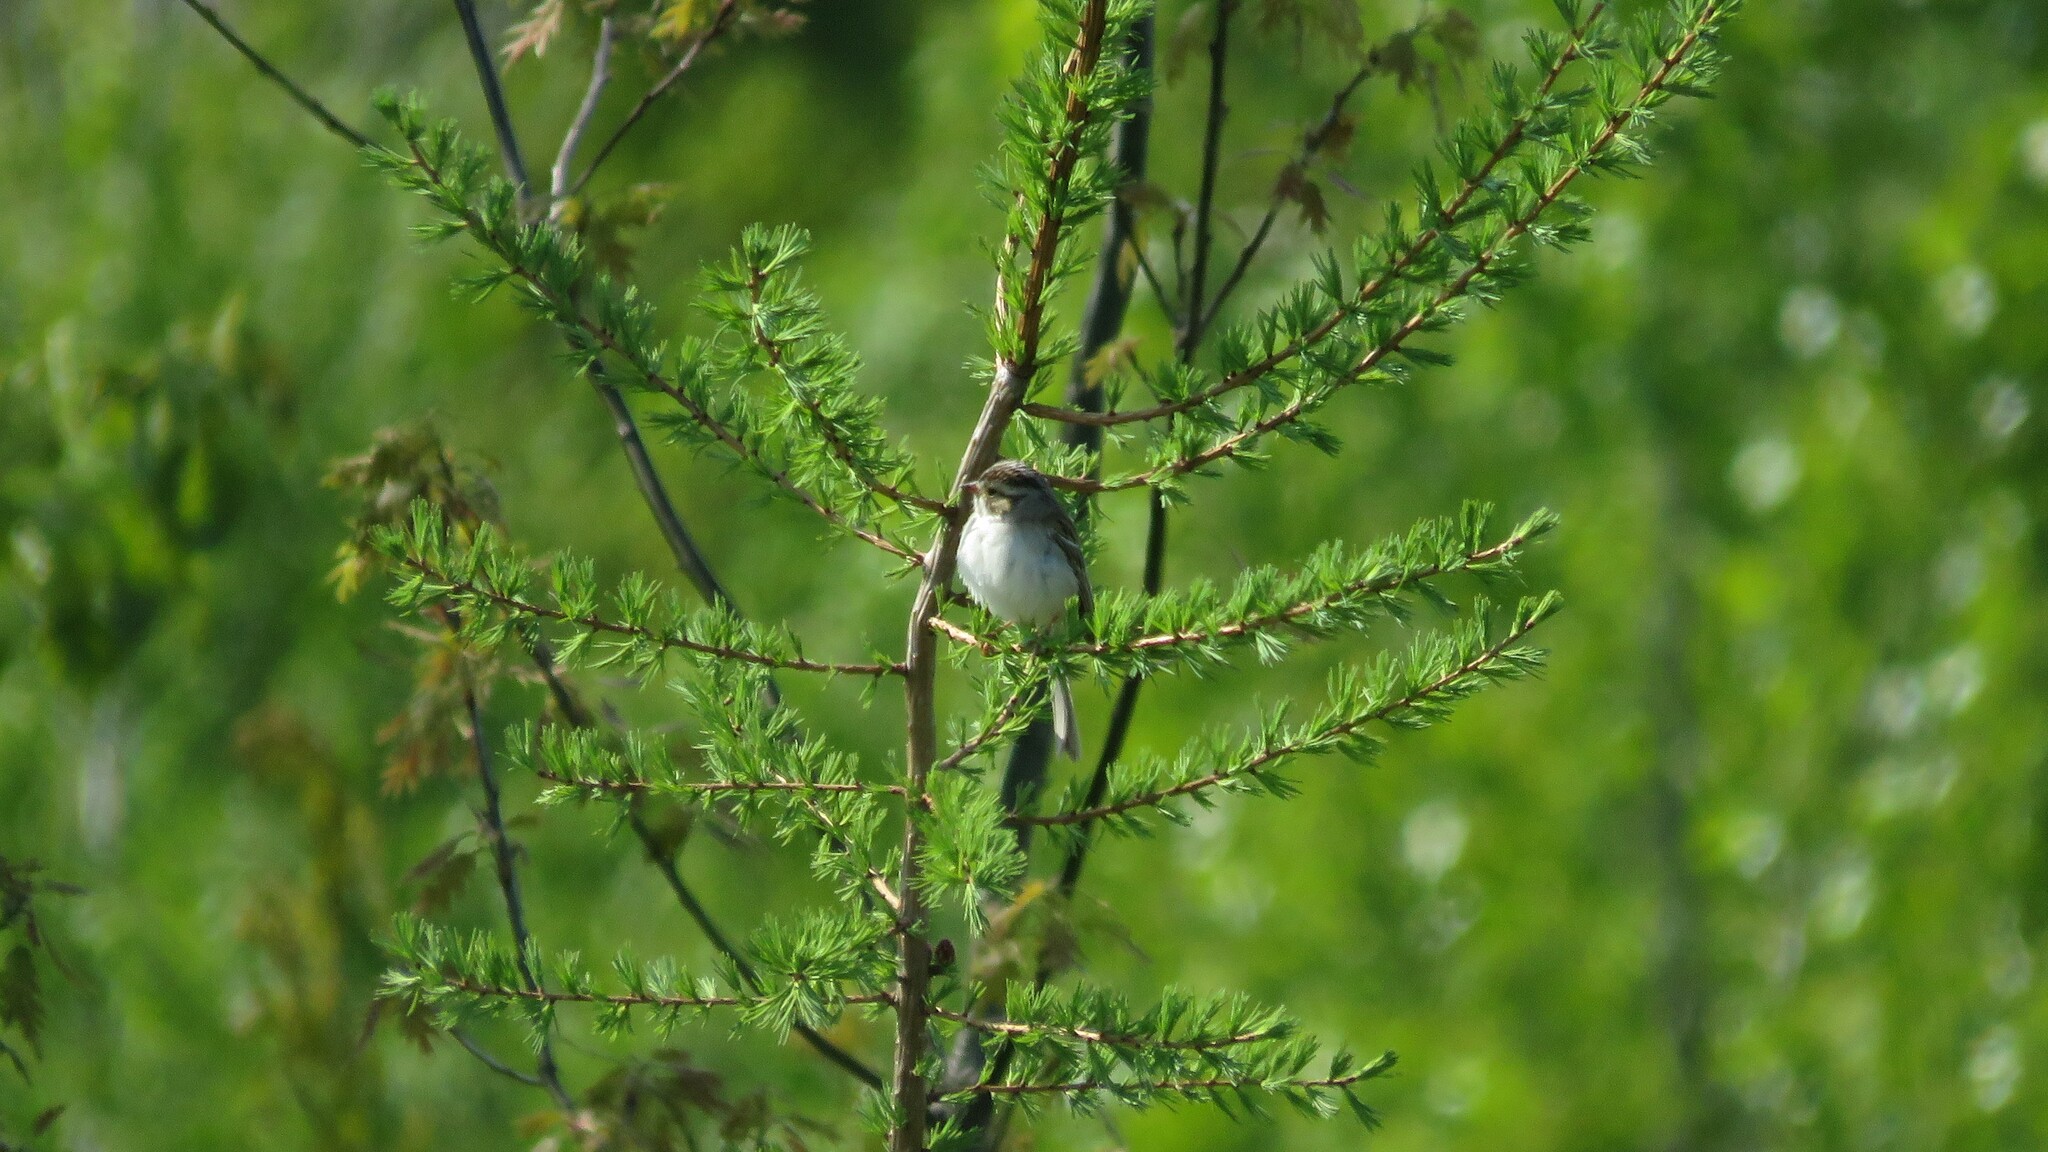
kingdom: Animalia
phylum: Chordata
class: Aves
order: Passeriformes
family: Passerellidae
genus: Spizella
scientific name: Spizella pallida
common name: Clay-colored sparrow
